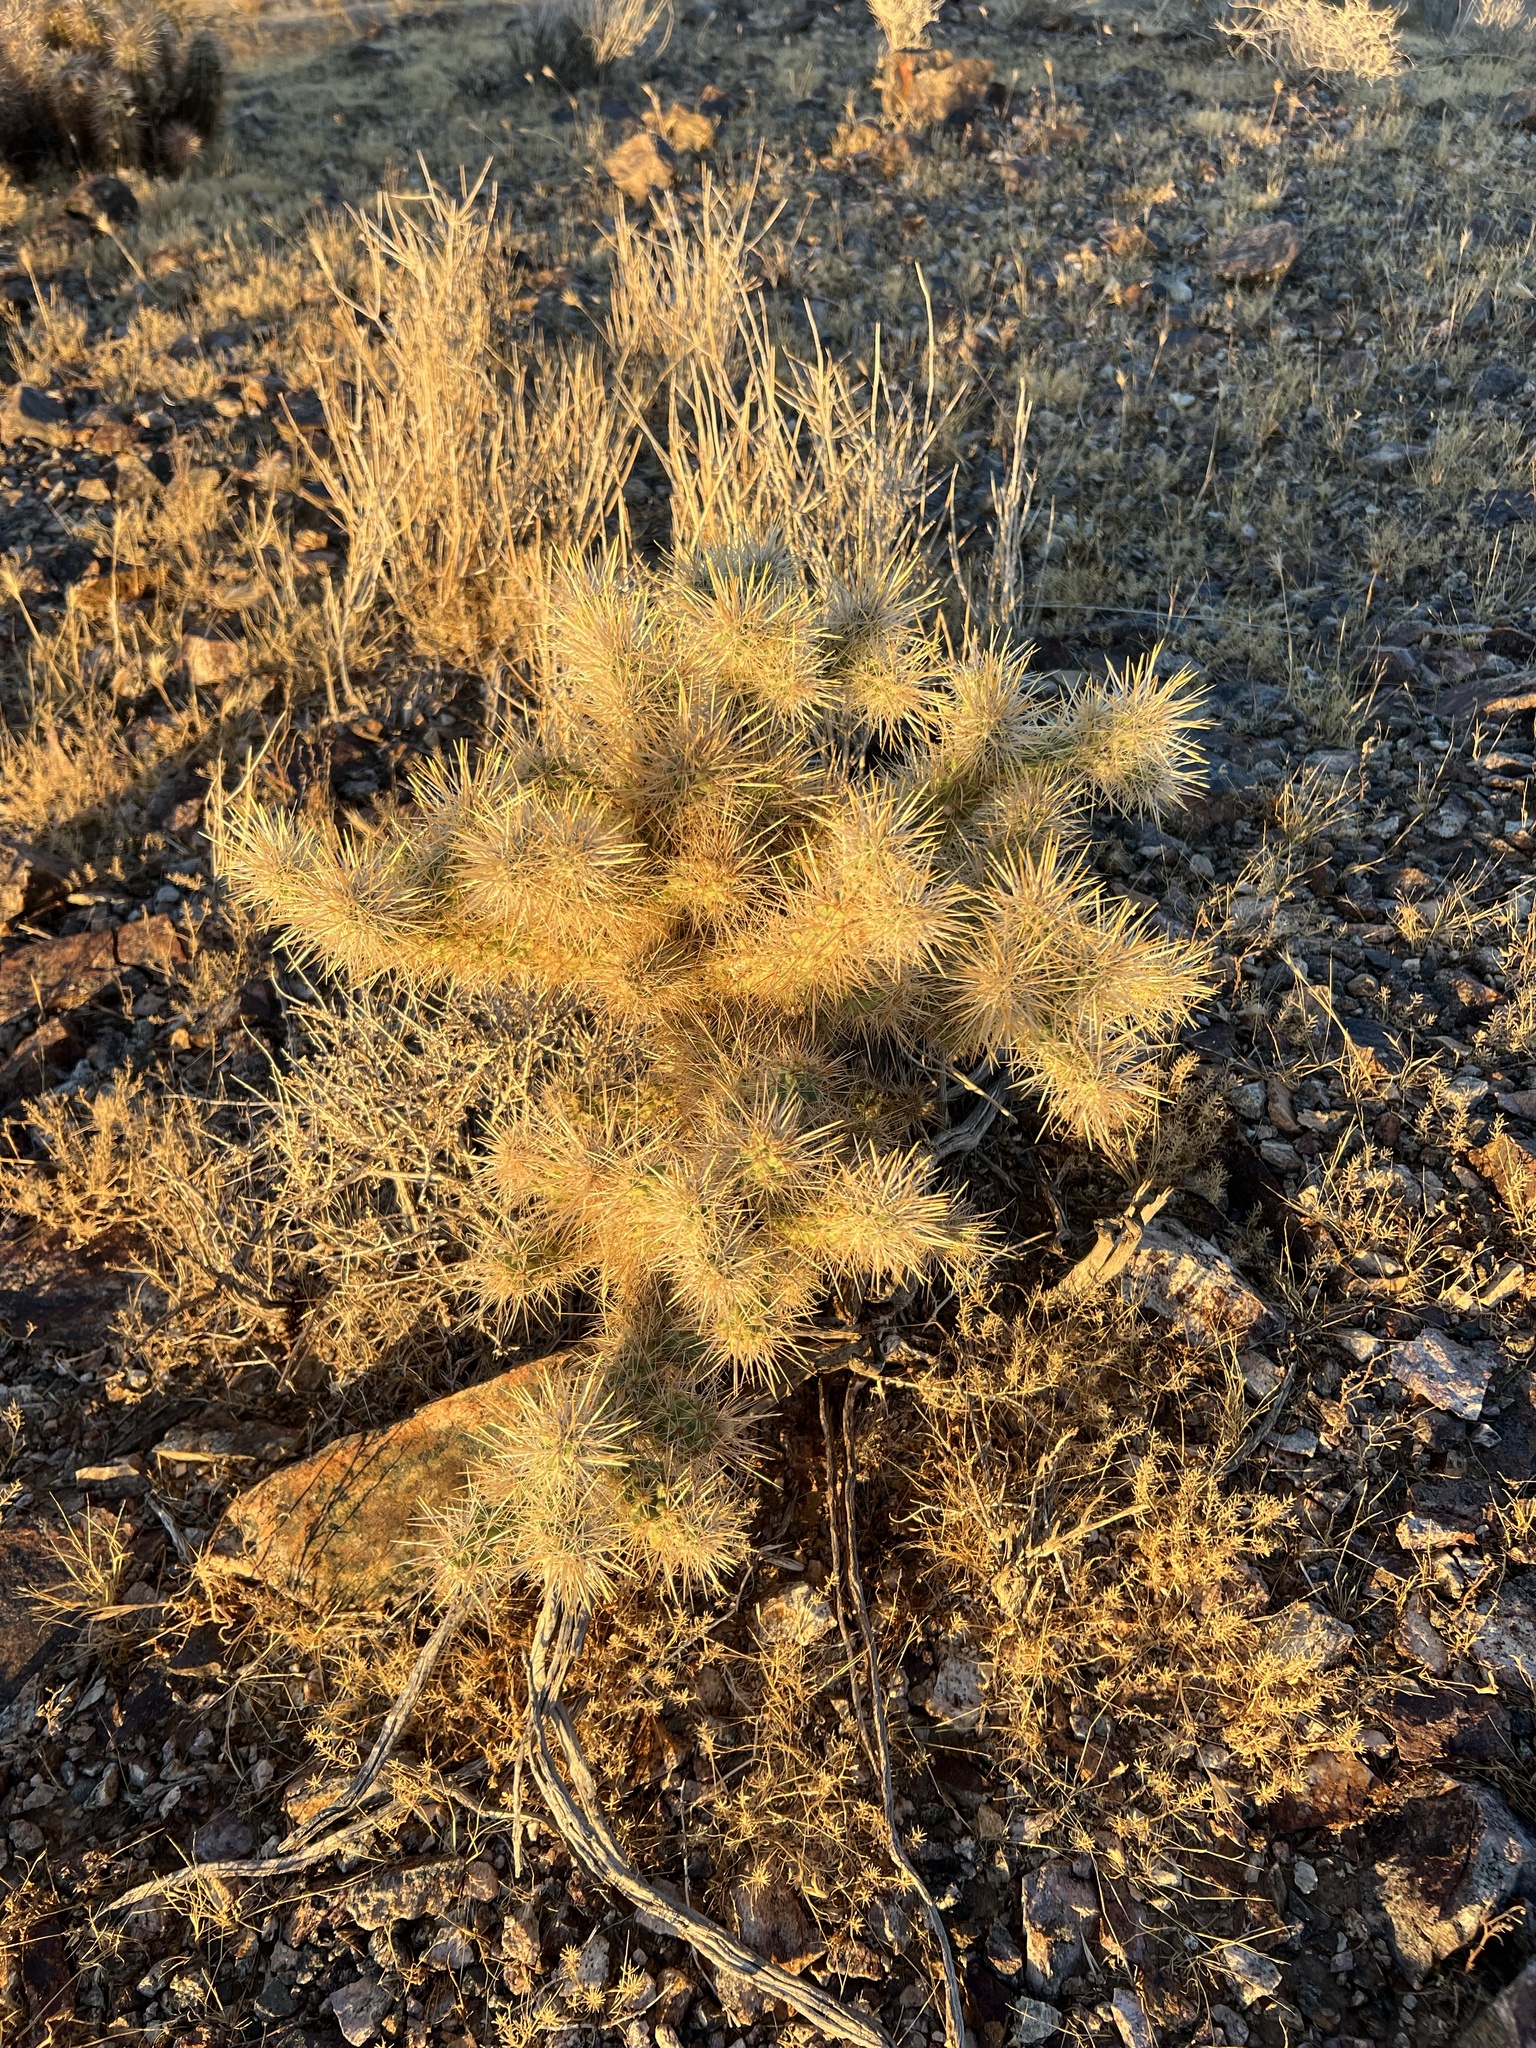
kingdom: Plantae
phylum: Tracheophyta
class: Magnoliopsida
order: Caryophyllales
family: Cactaceae
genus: Cylindropuntia
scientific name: Cylindropuntia echinocarpa
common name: Ground cholla
